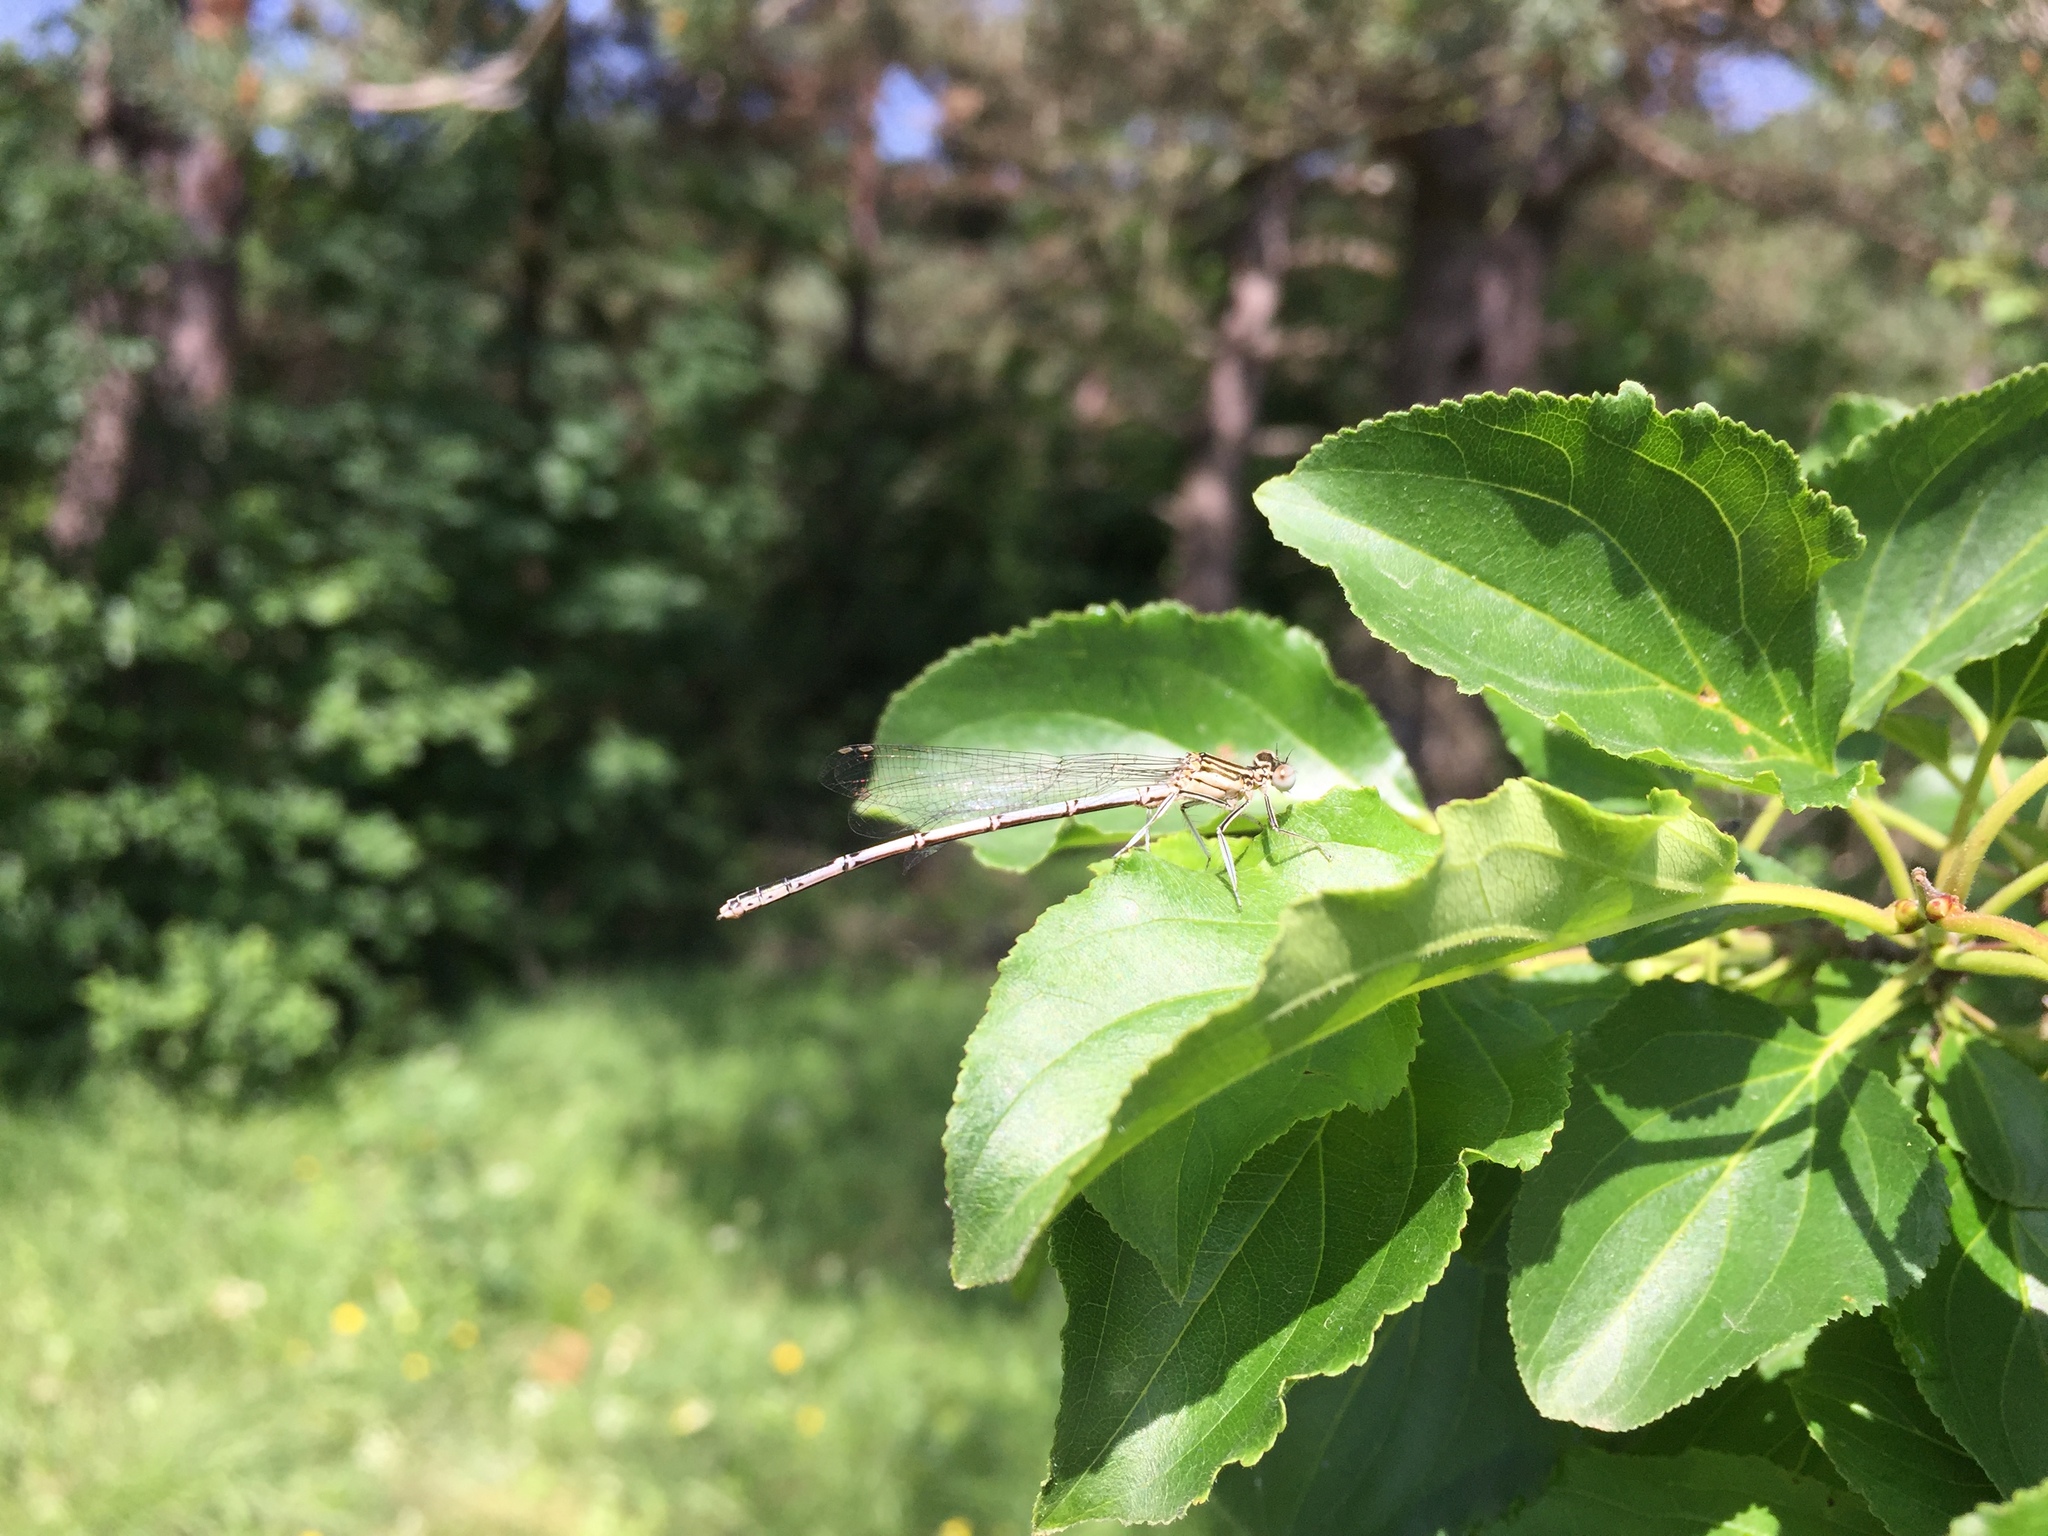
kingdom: Animalia
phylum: Arthropoda
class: Insecta
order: Odonata
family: Platycnemididae
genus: Platycnemis
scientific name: Platycnemis pennipes
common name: White-legged damselfly
